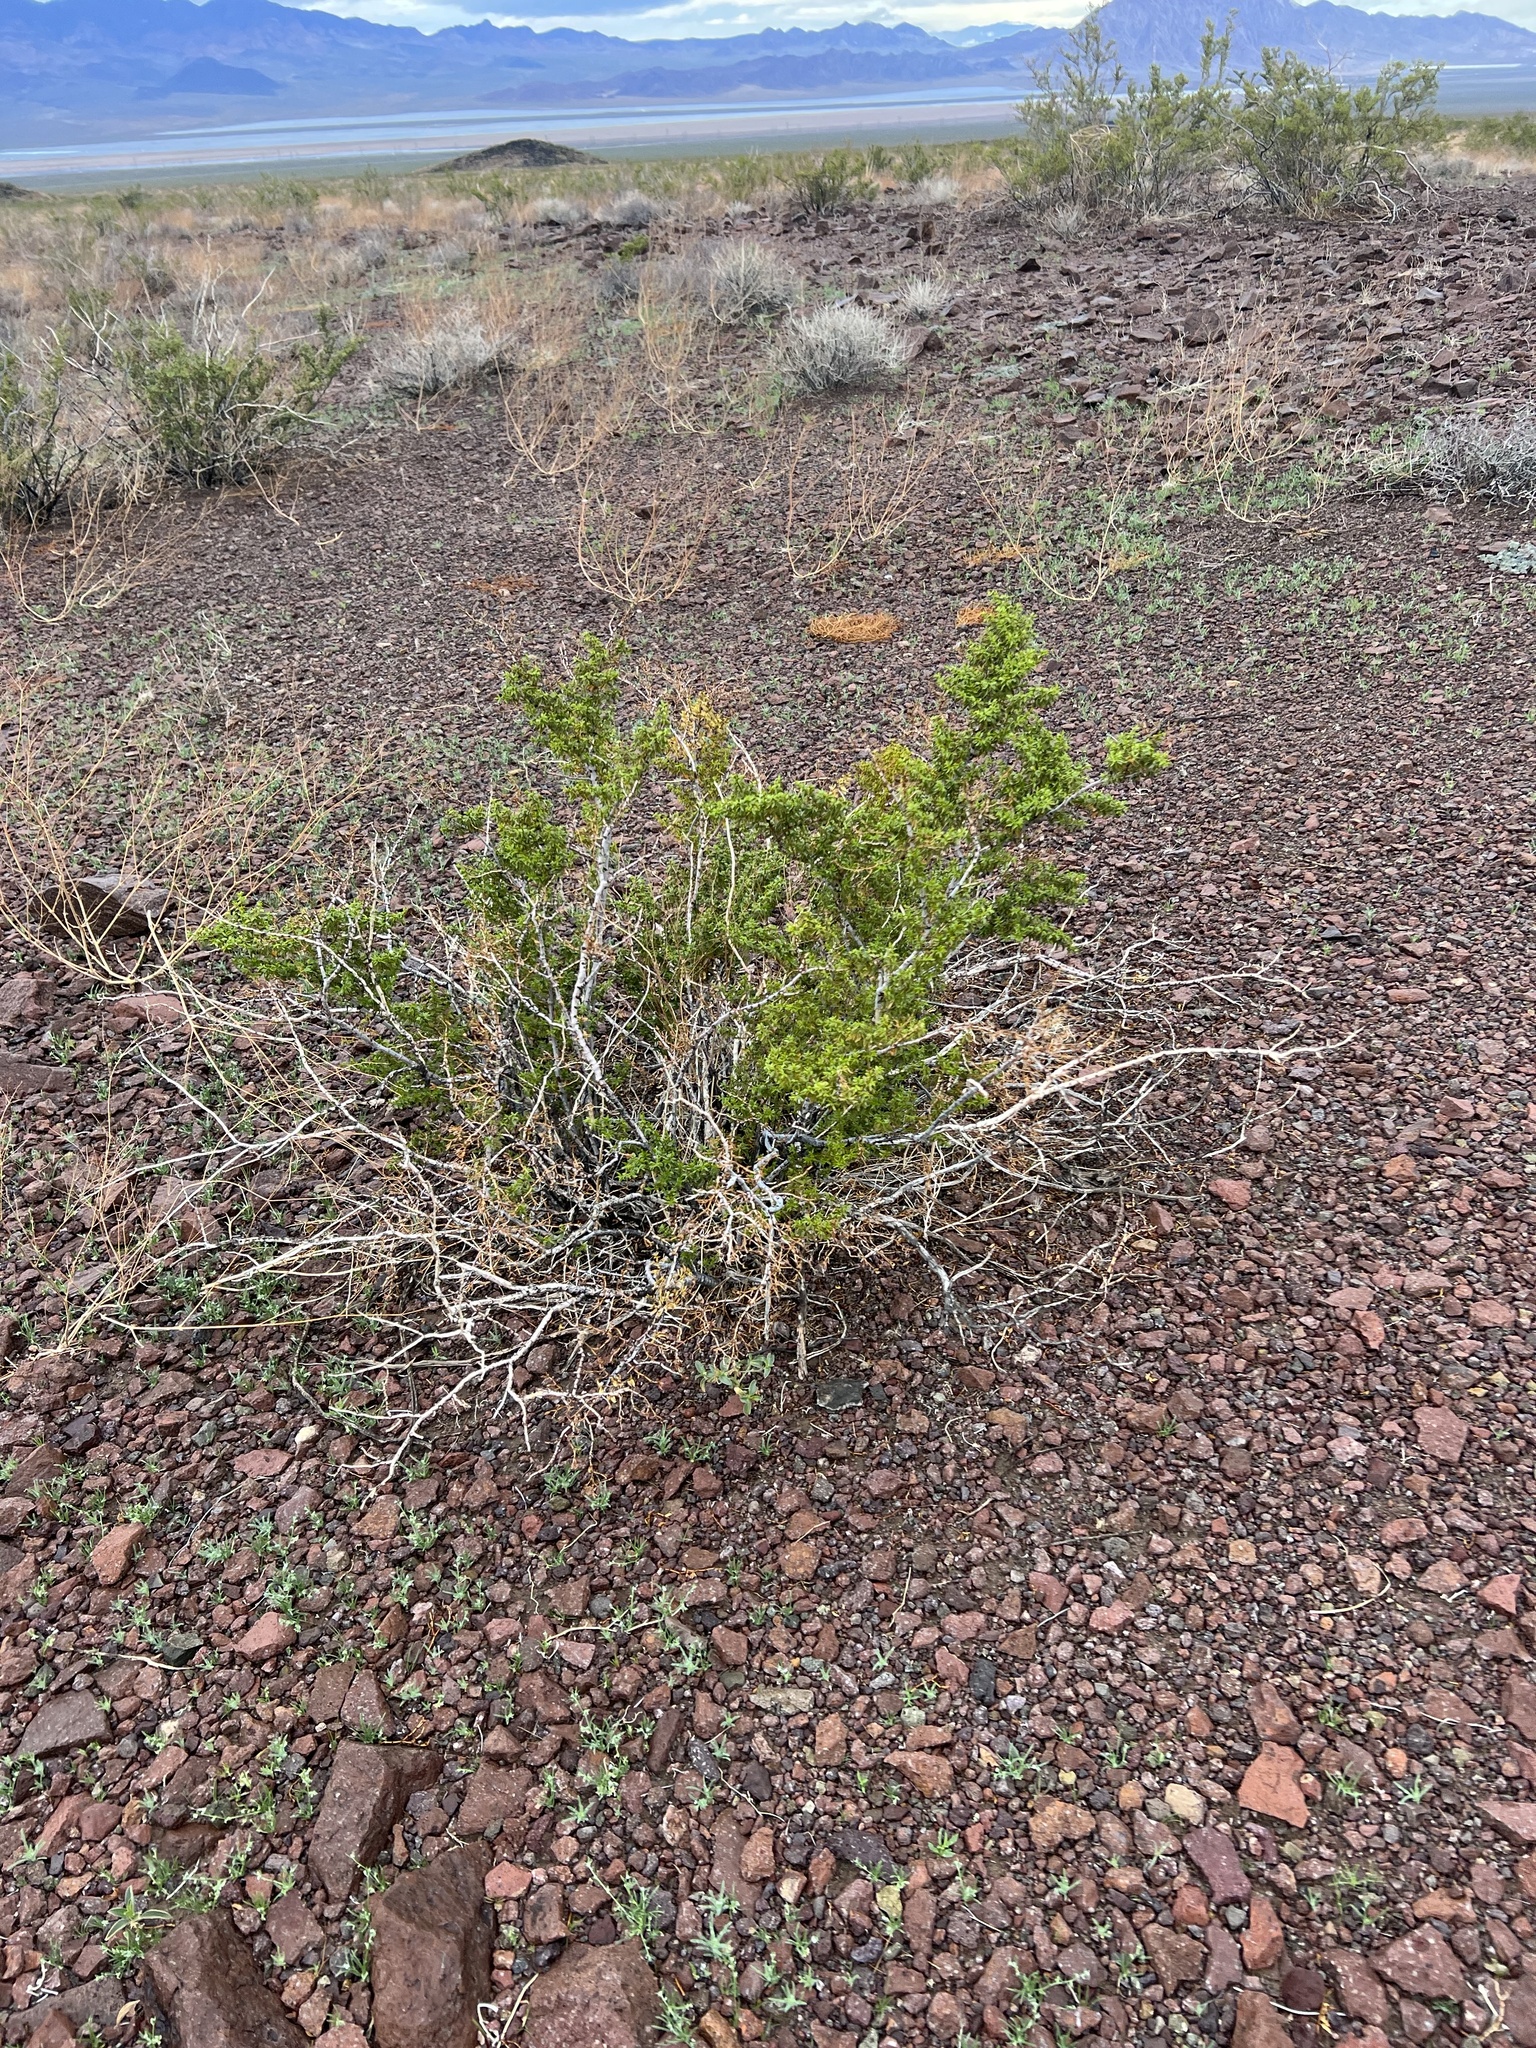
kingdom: Plantae
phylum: Tracheophyta
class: Magnoliopsida
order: Zygophyllales
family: Zygophyllaceae
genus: Larrea
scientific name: Larrea tridentata
